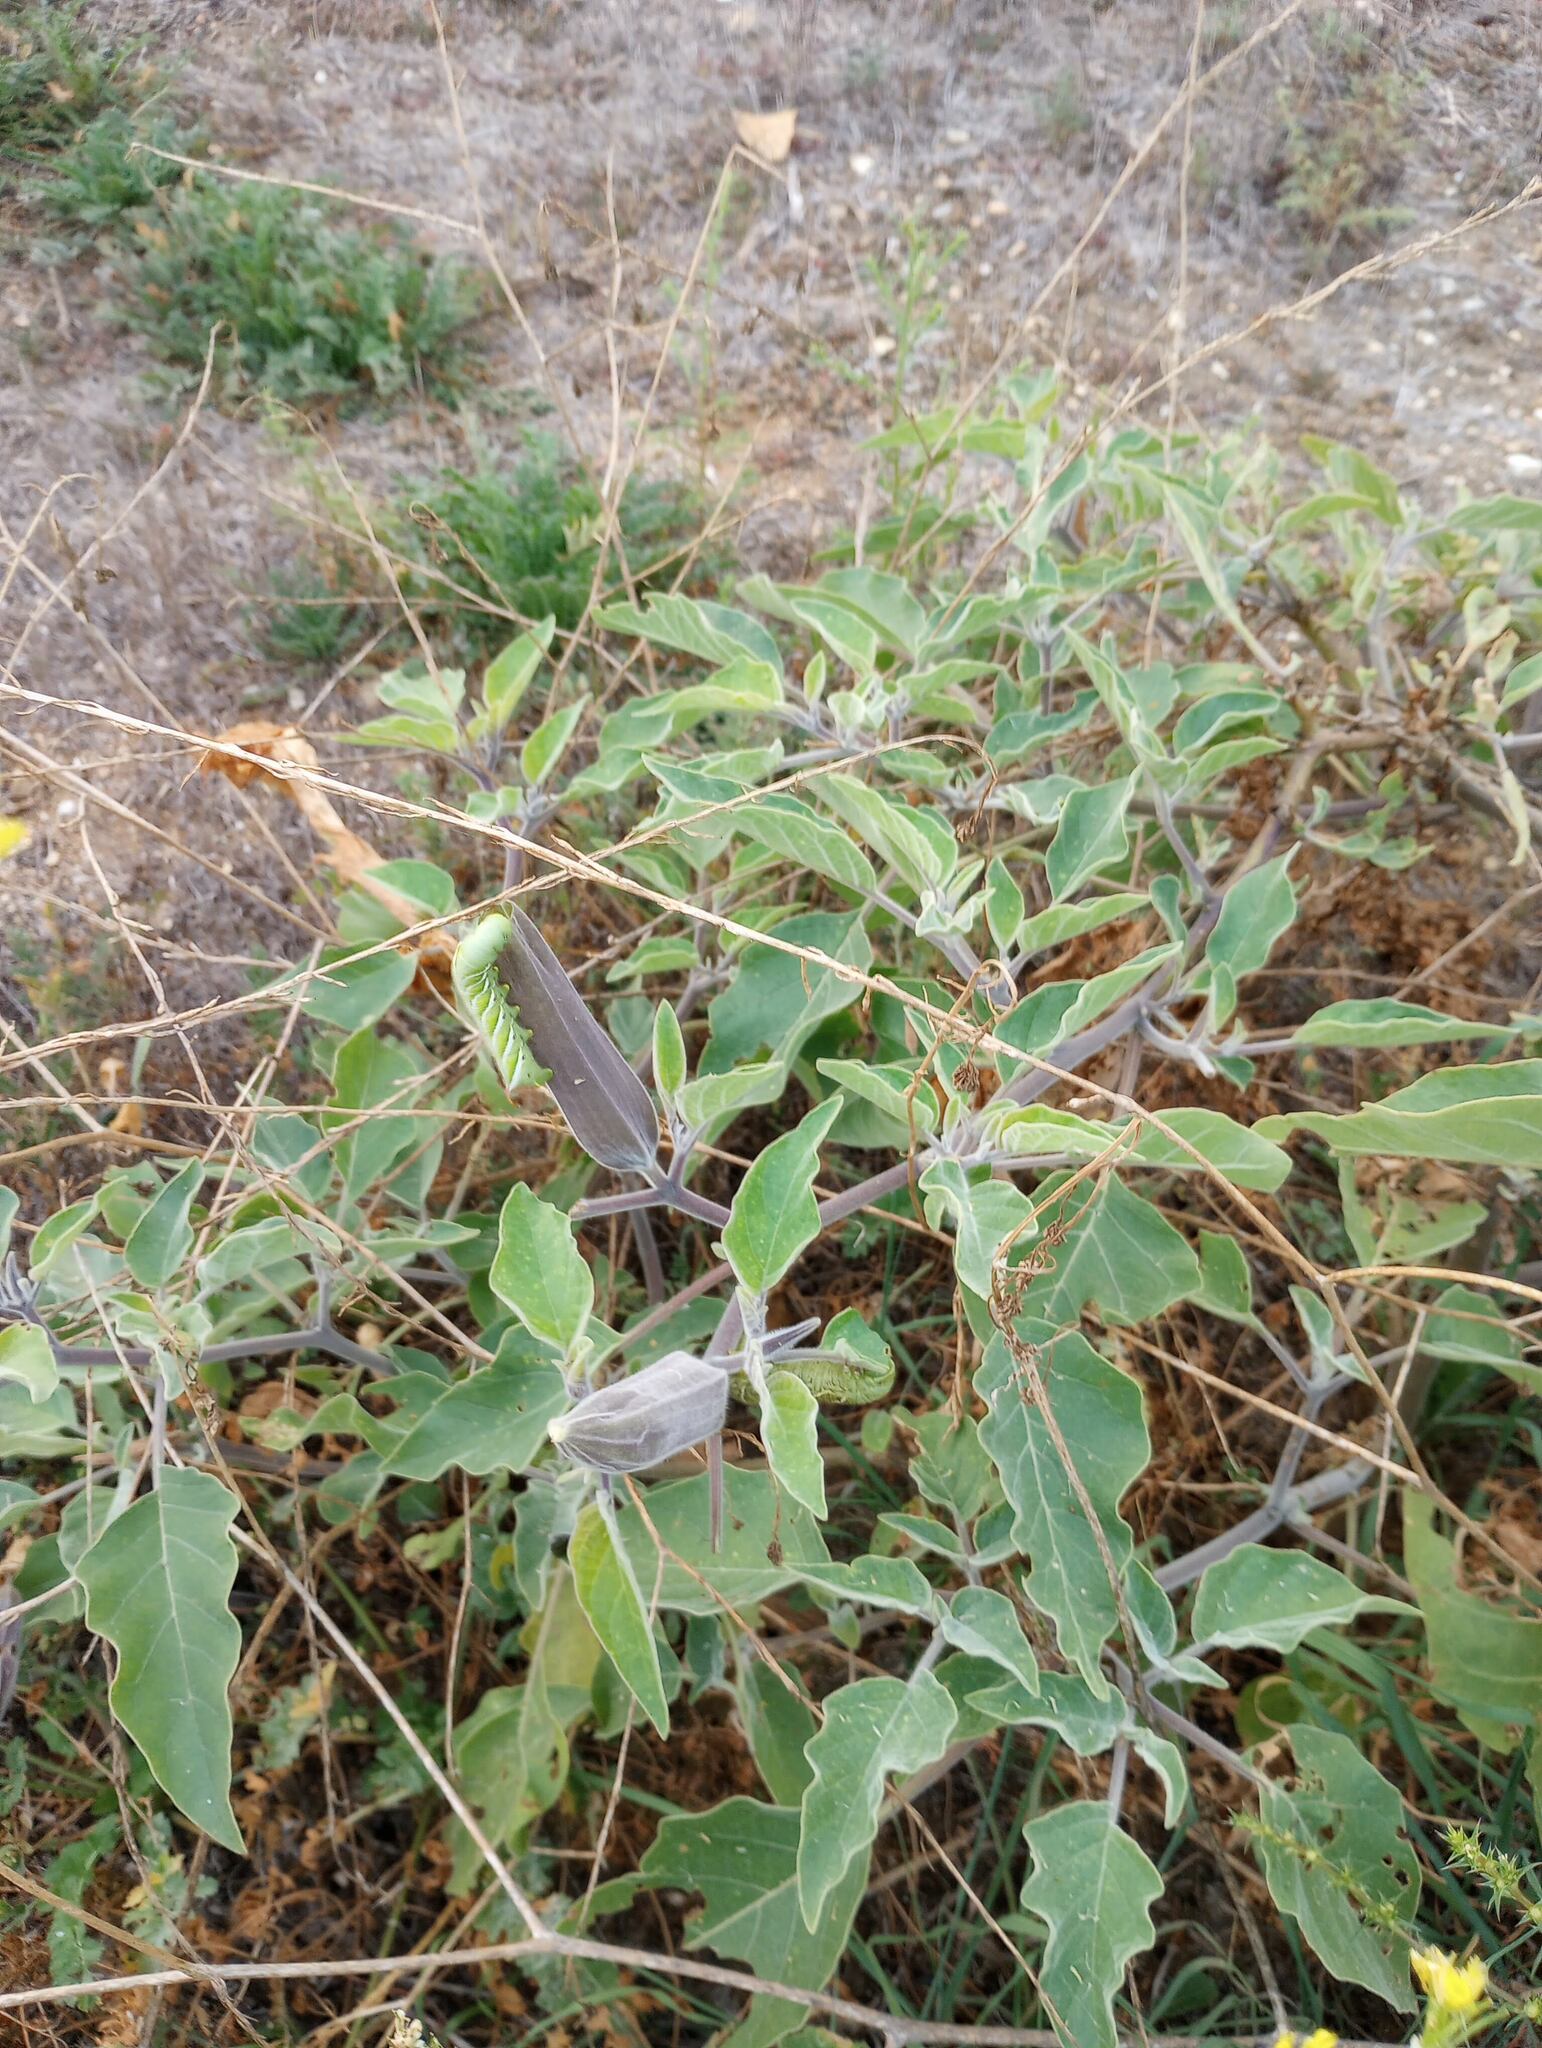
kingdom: Plantae
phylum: Tracheophyta
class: Magnoliopsida
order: Solanales
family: Solanaceae
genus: Datura
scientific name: Datura wrightii
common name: Sacred thorn-apple
